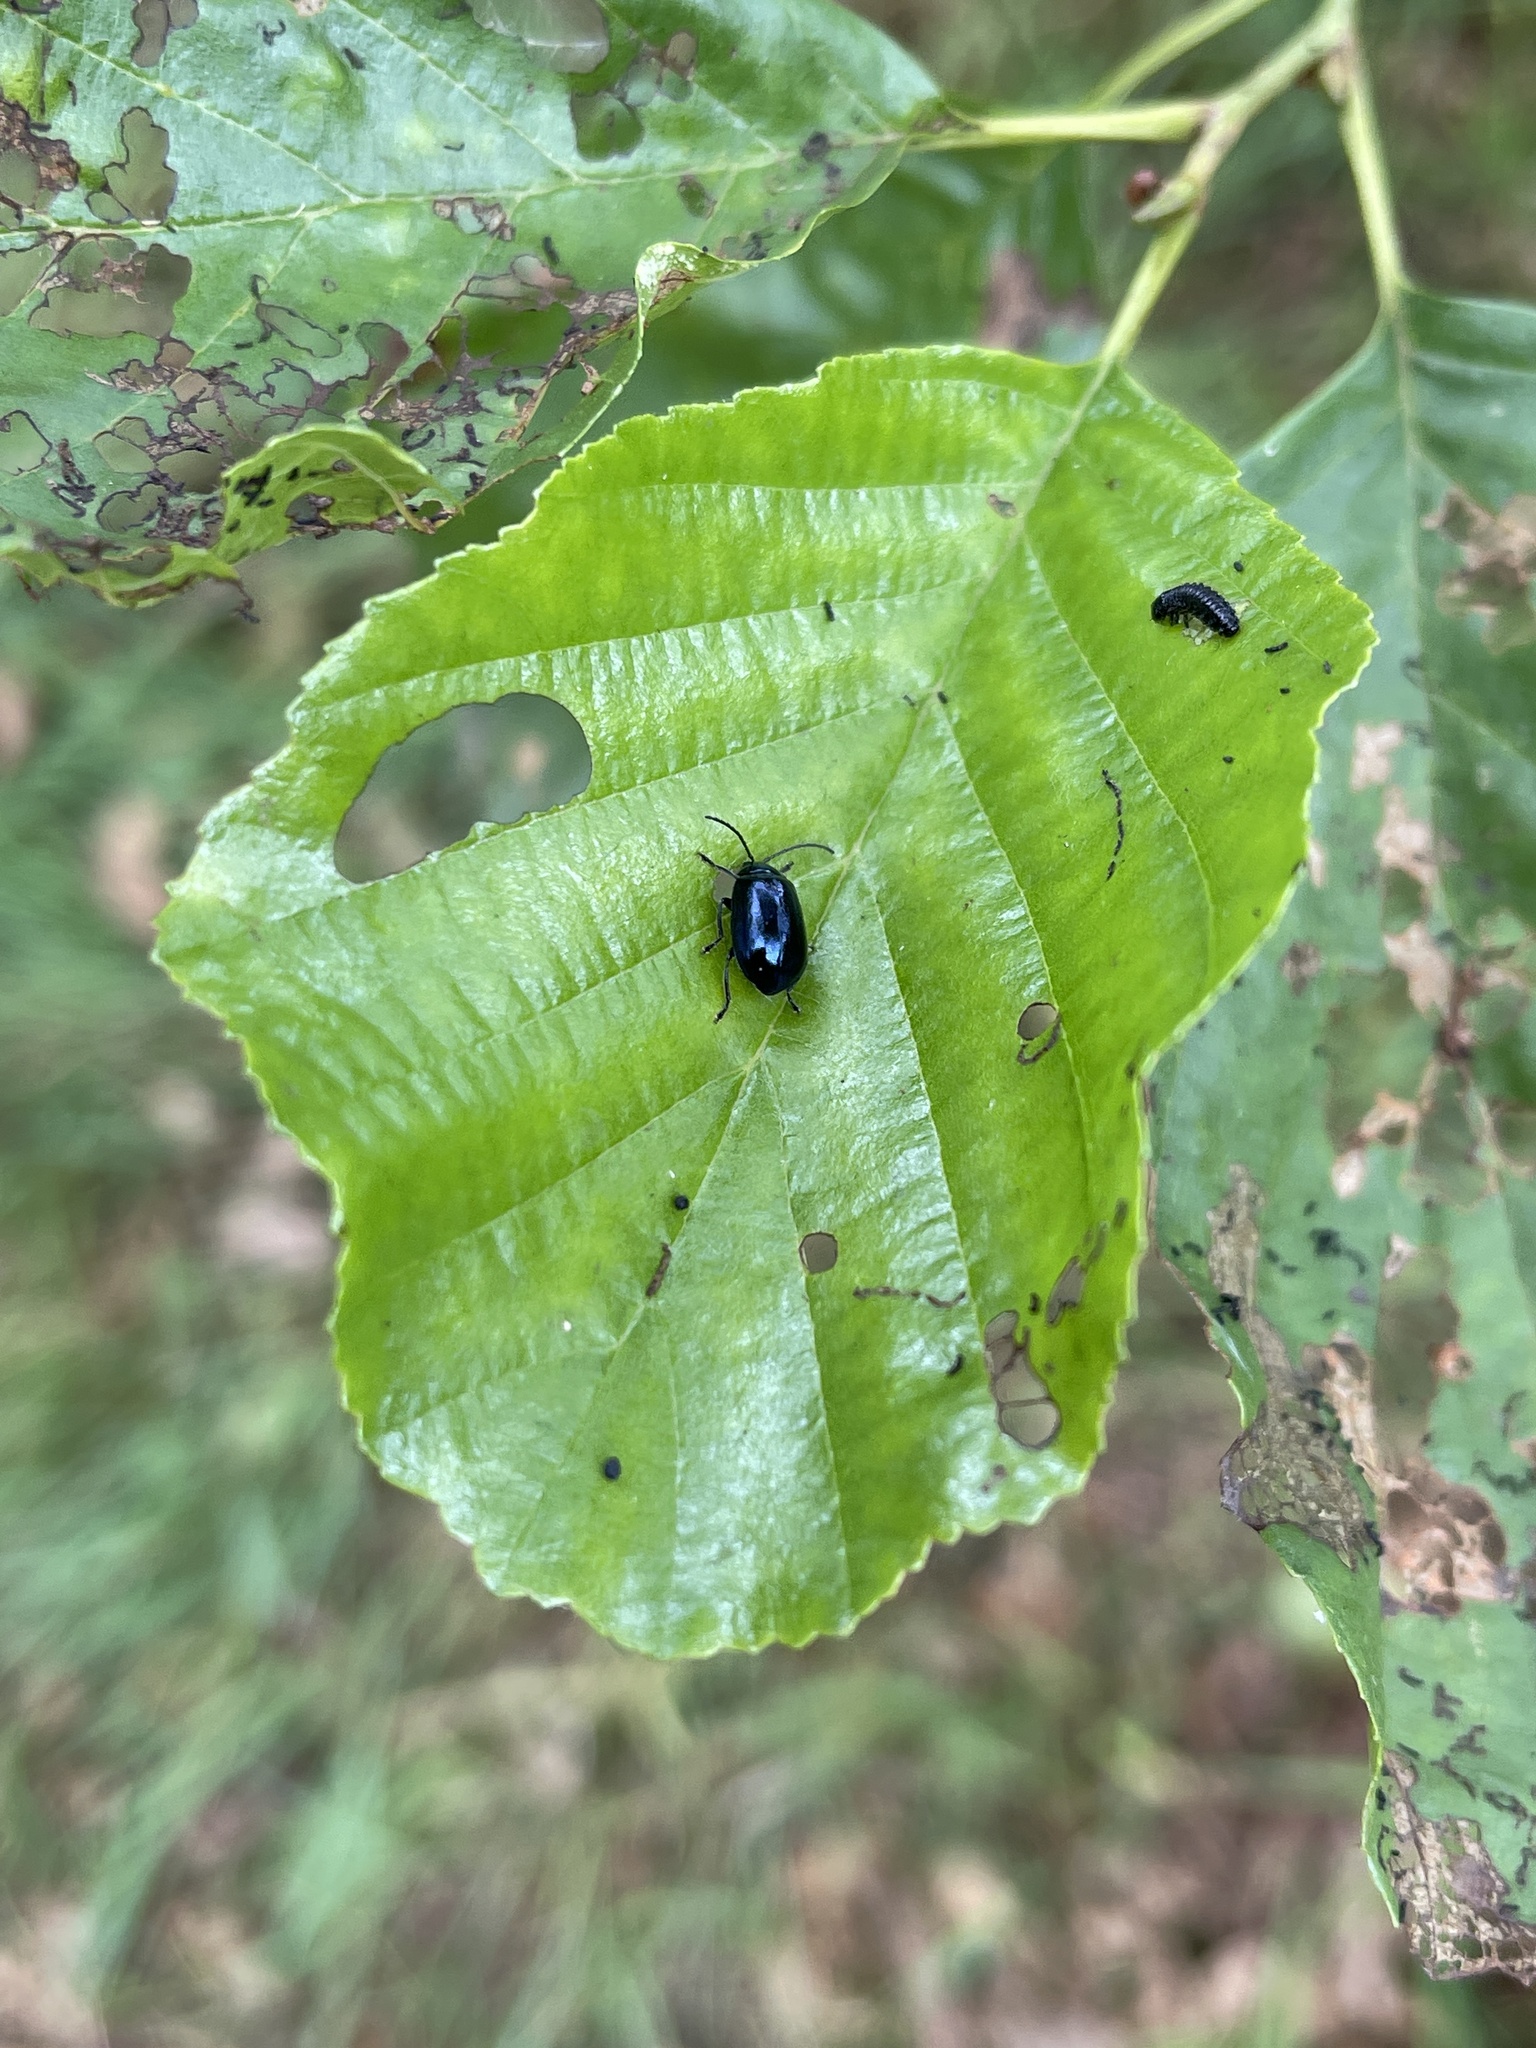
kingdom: Animalia
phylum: Arthropoda
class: Insecta
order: Coleoptera
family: Chrysomelidae
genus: Agelastica
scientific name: Agelastica alni
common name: Alder leaf beetle
